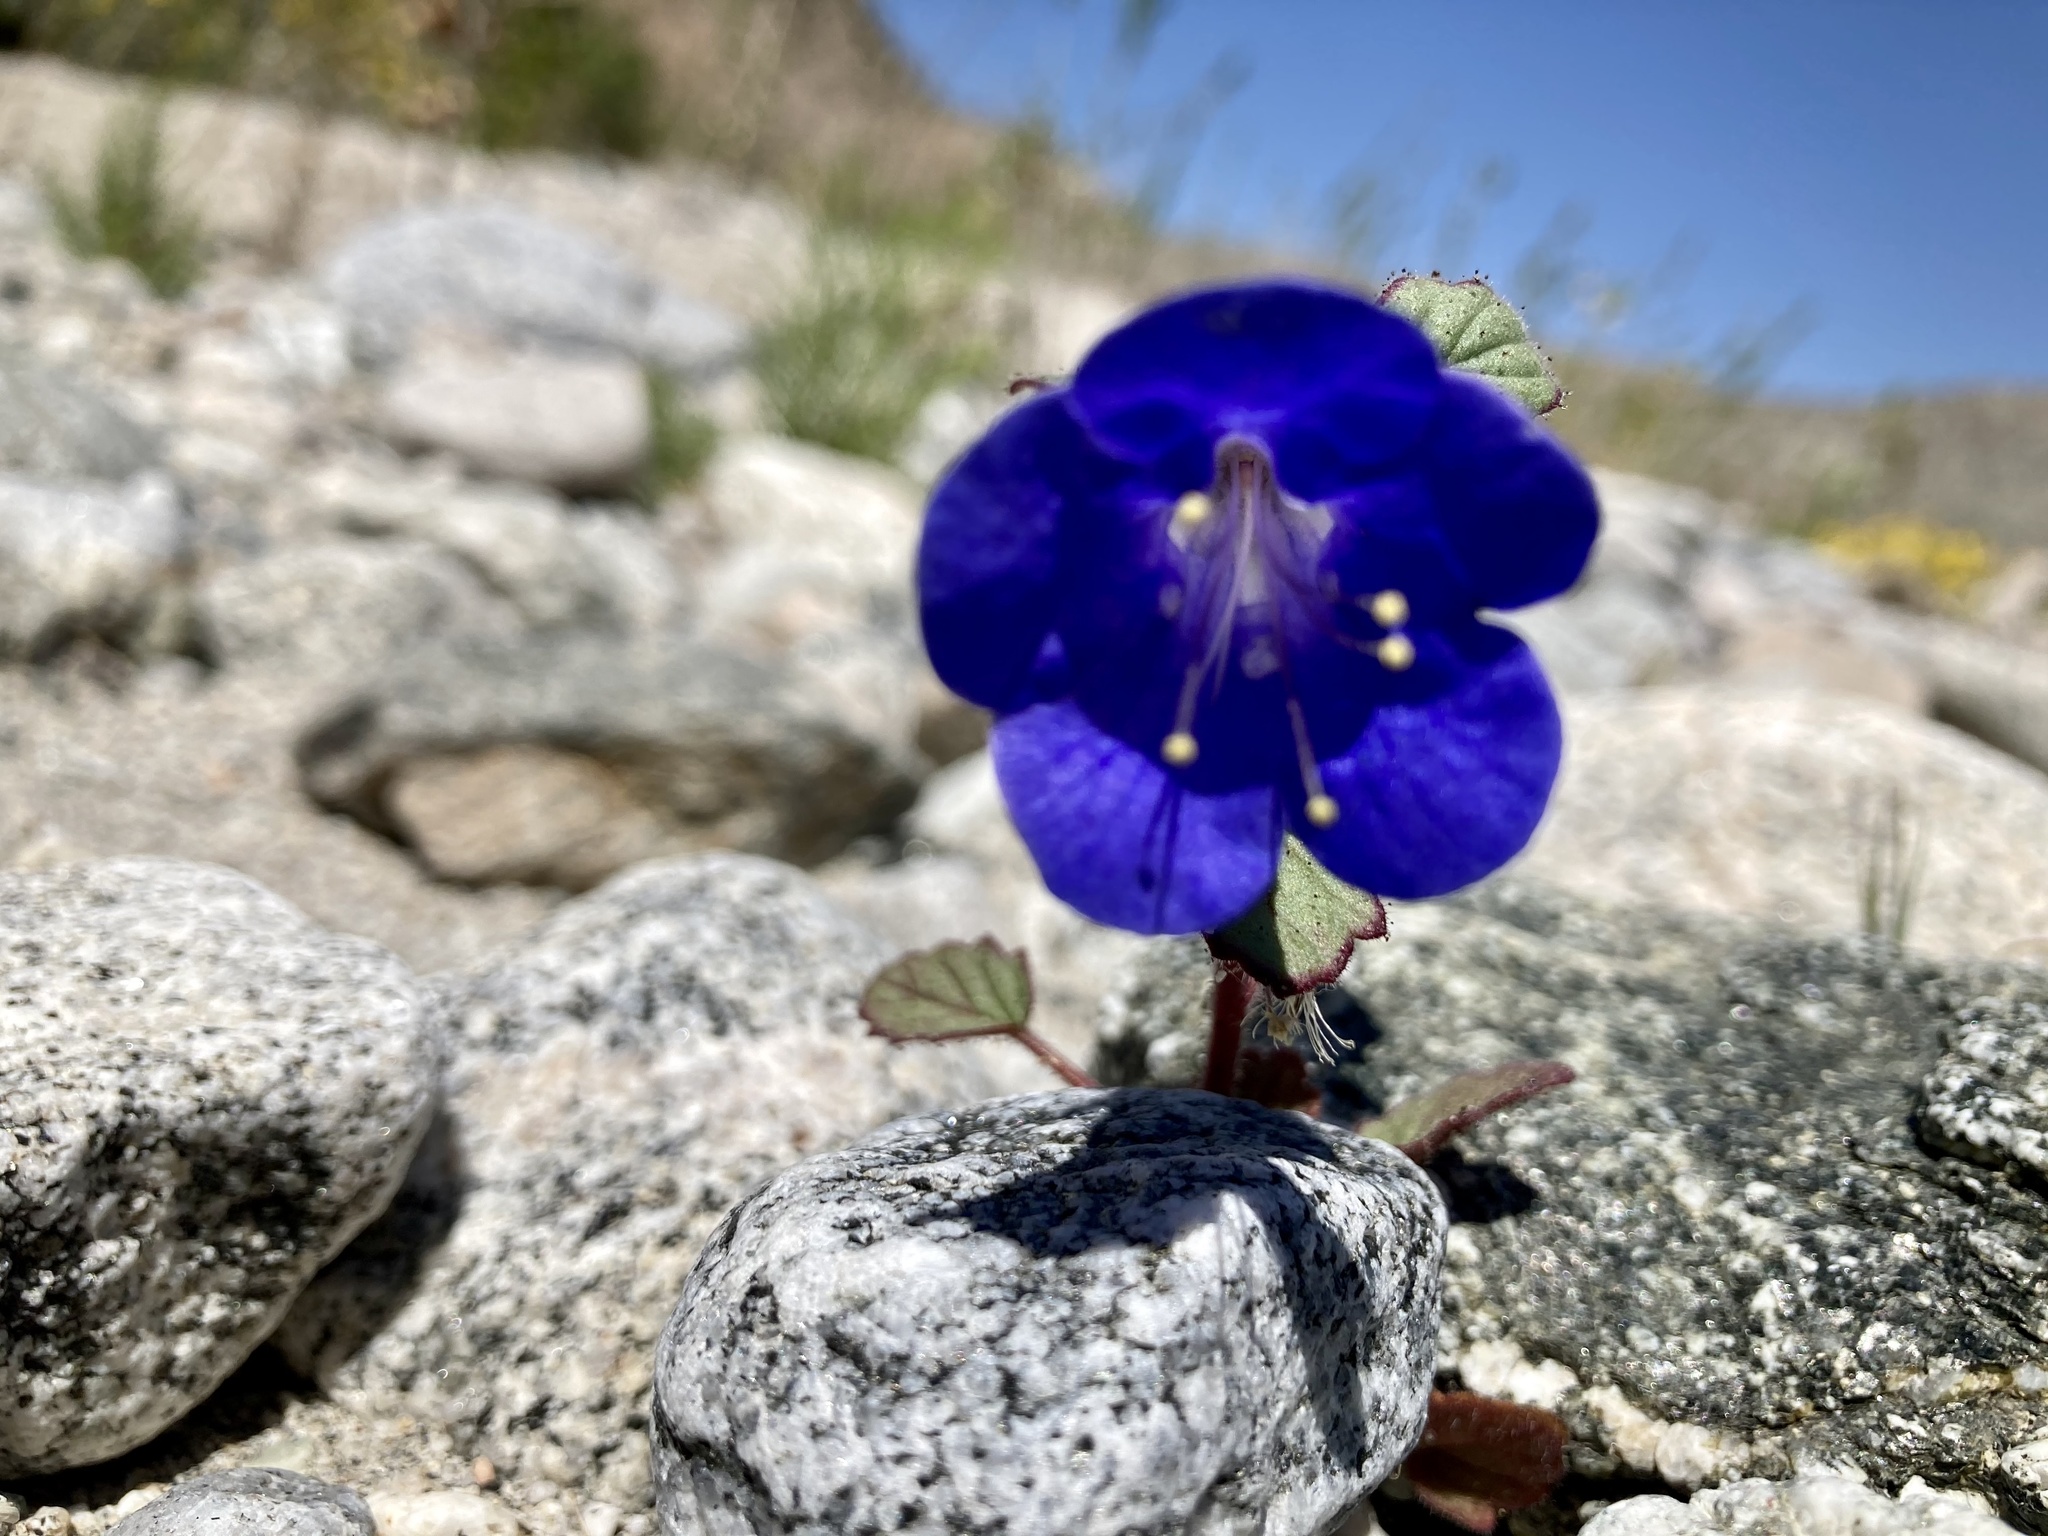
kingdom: Plantae
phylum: Tracheophyta
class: Magnoliopsida
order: Boraginales
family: Hydrophyllaceae
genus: Phacelia
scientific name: Phacelia campanularia
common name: California bluebell
